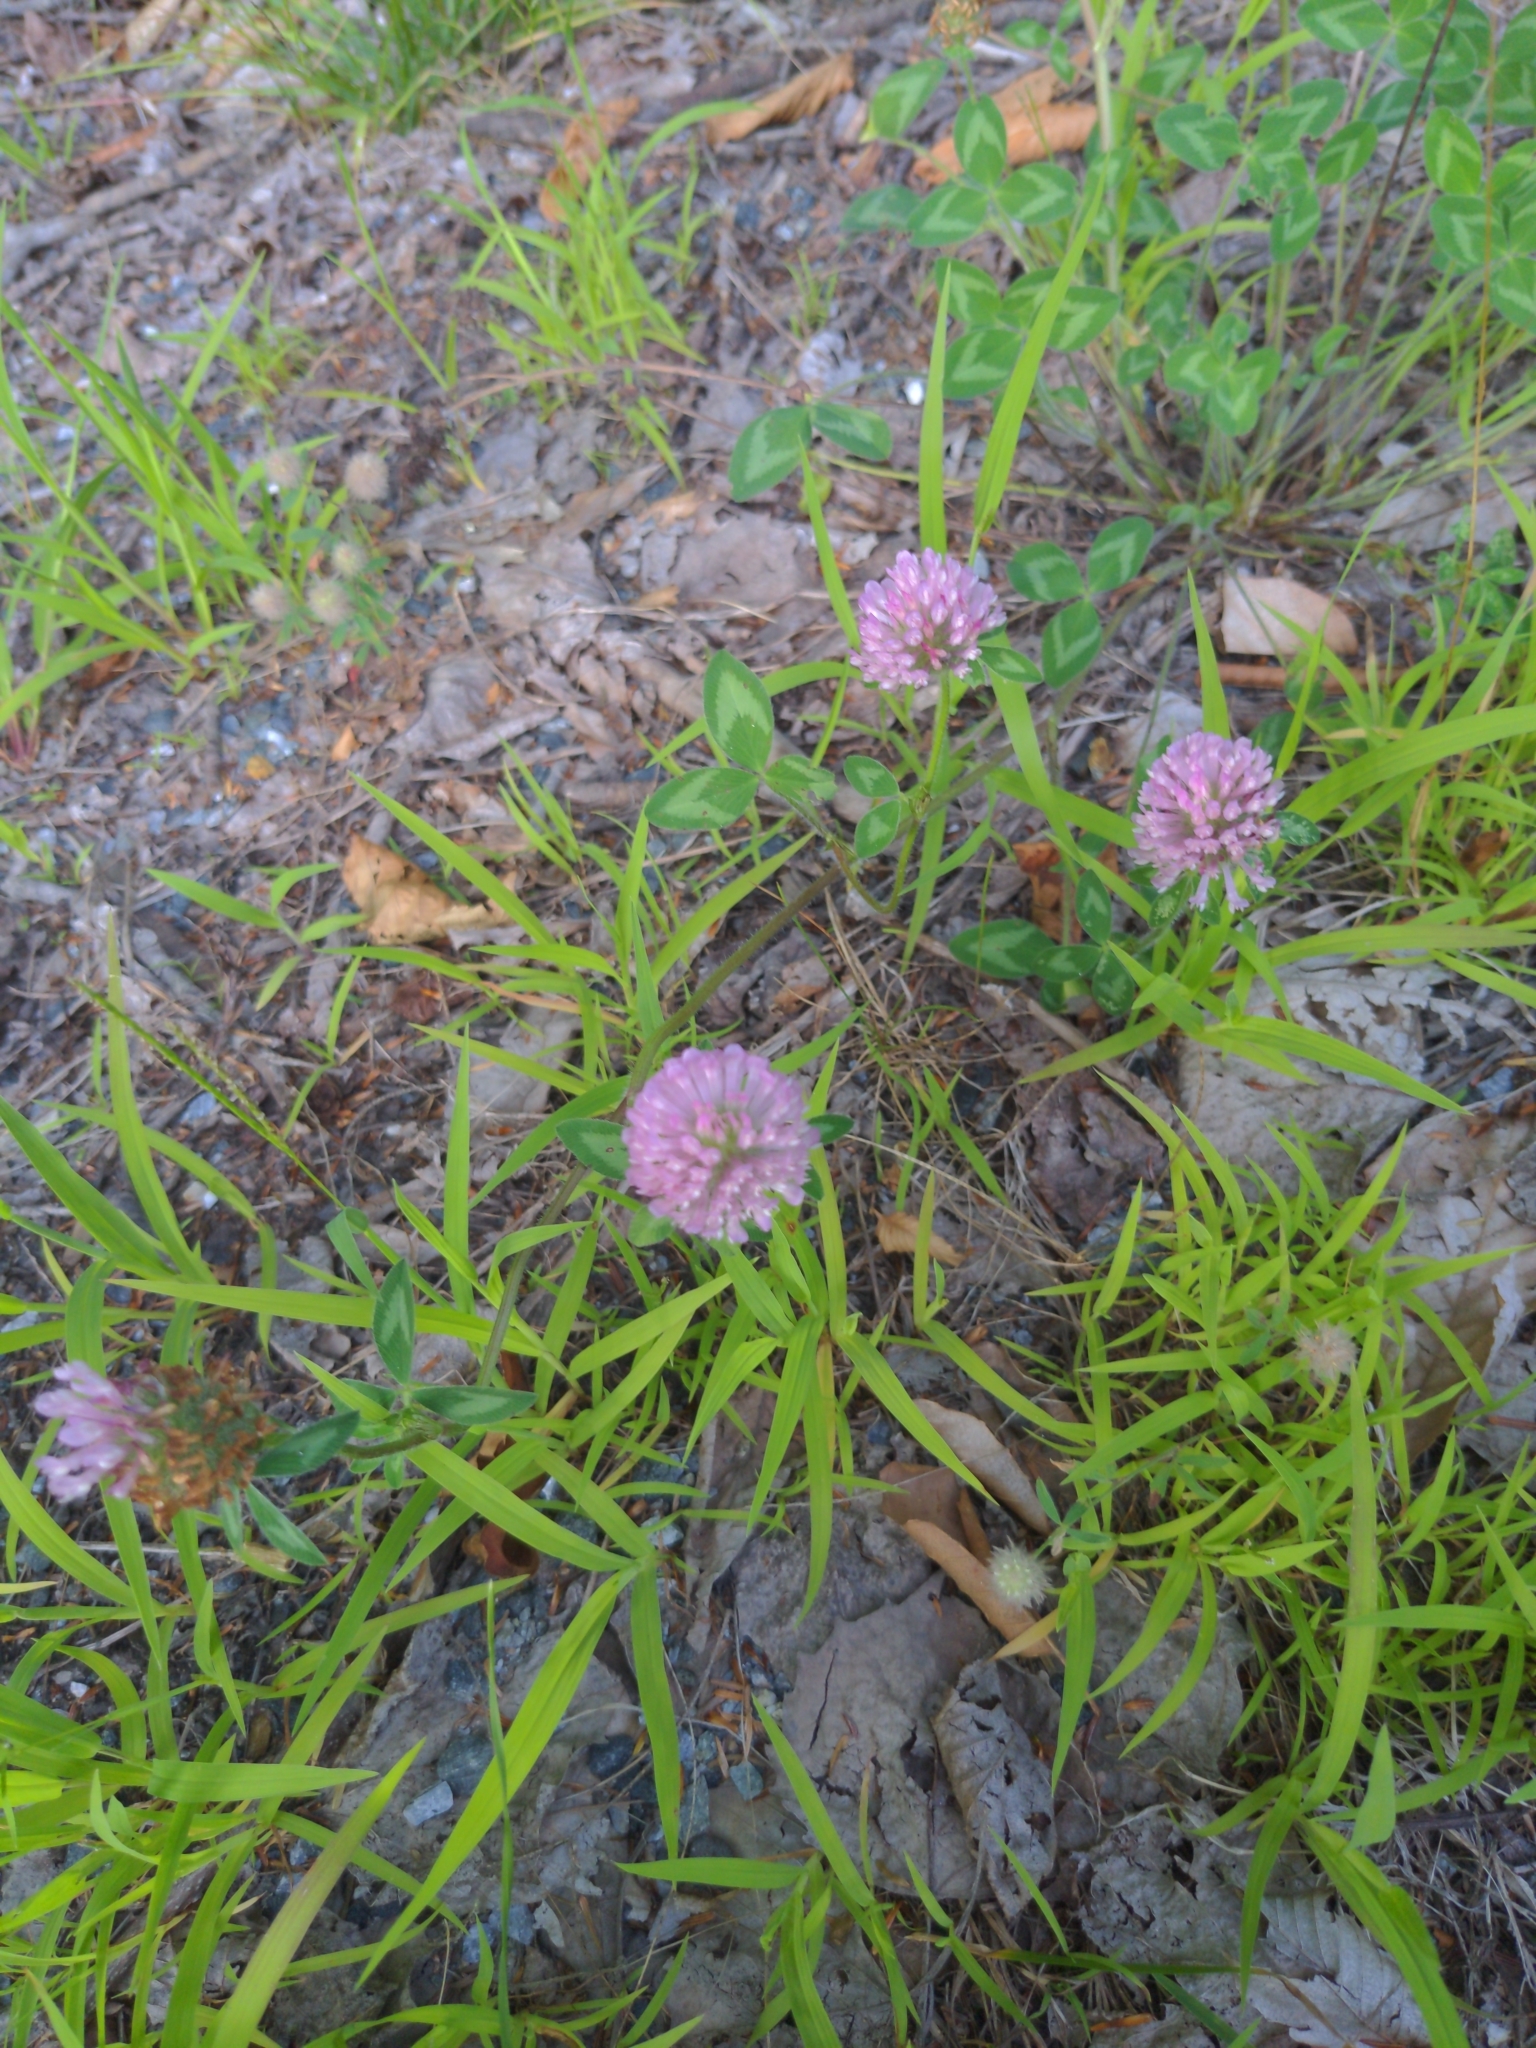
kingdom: Plantae
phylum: Tracheophyta
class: Magnoliopsida
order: Fabales
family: Fabaceae
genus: Trifolium
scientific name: Trifolium pratense
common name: Red clover
